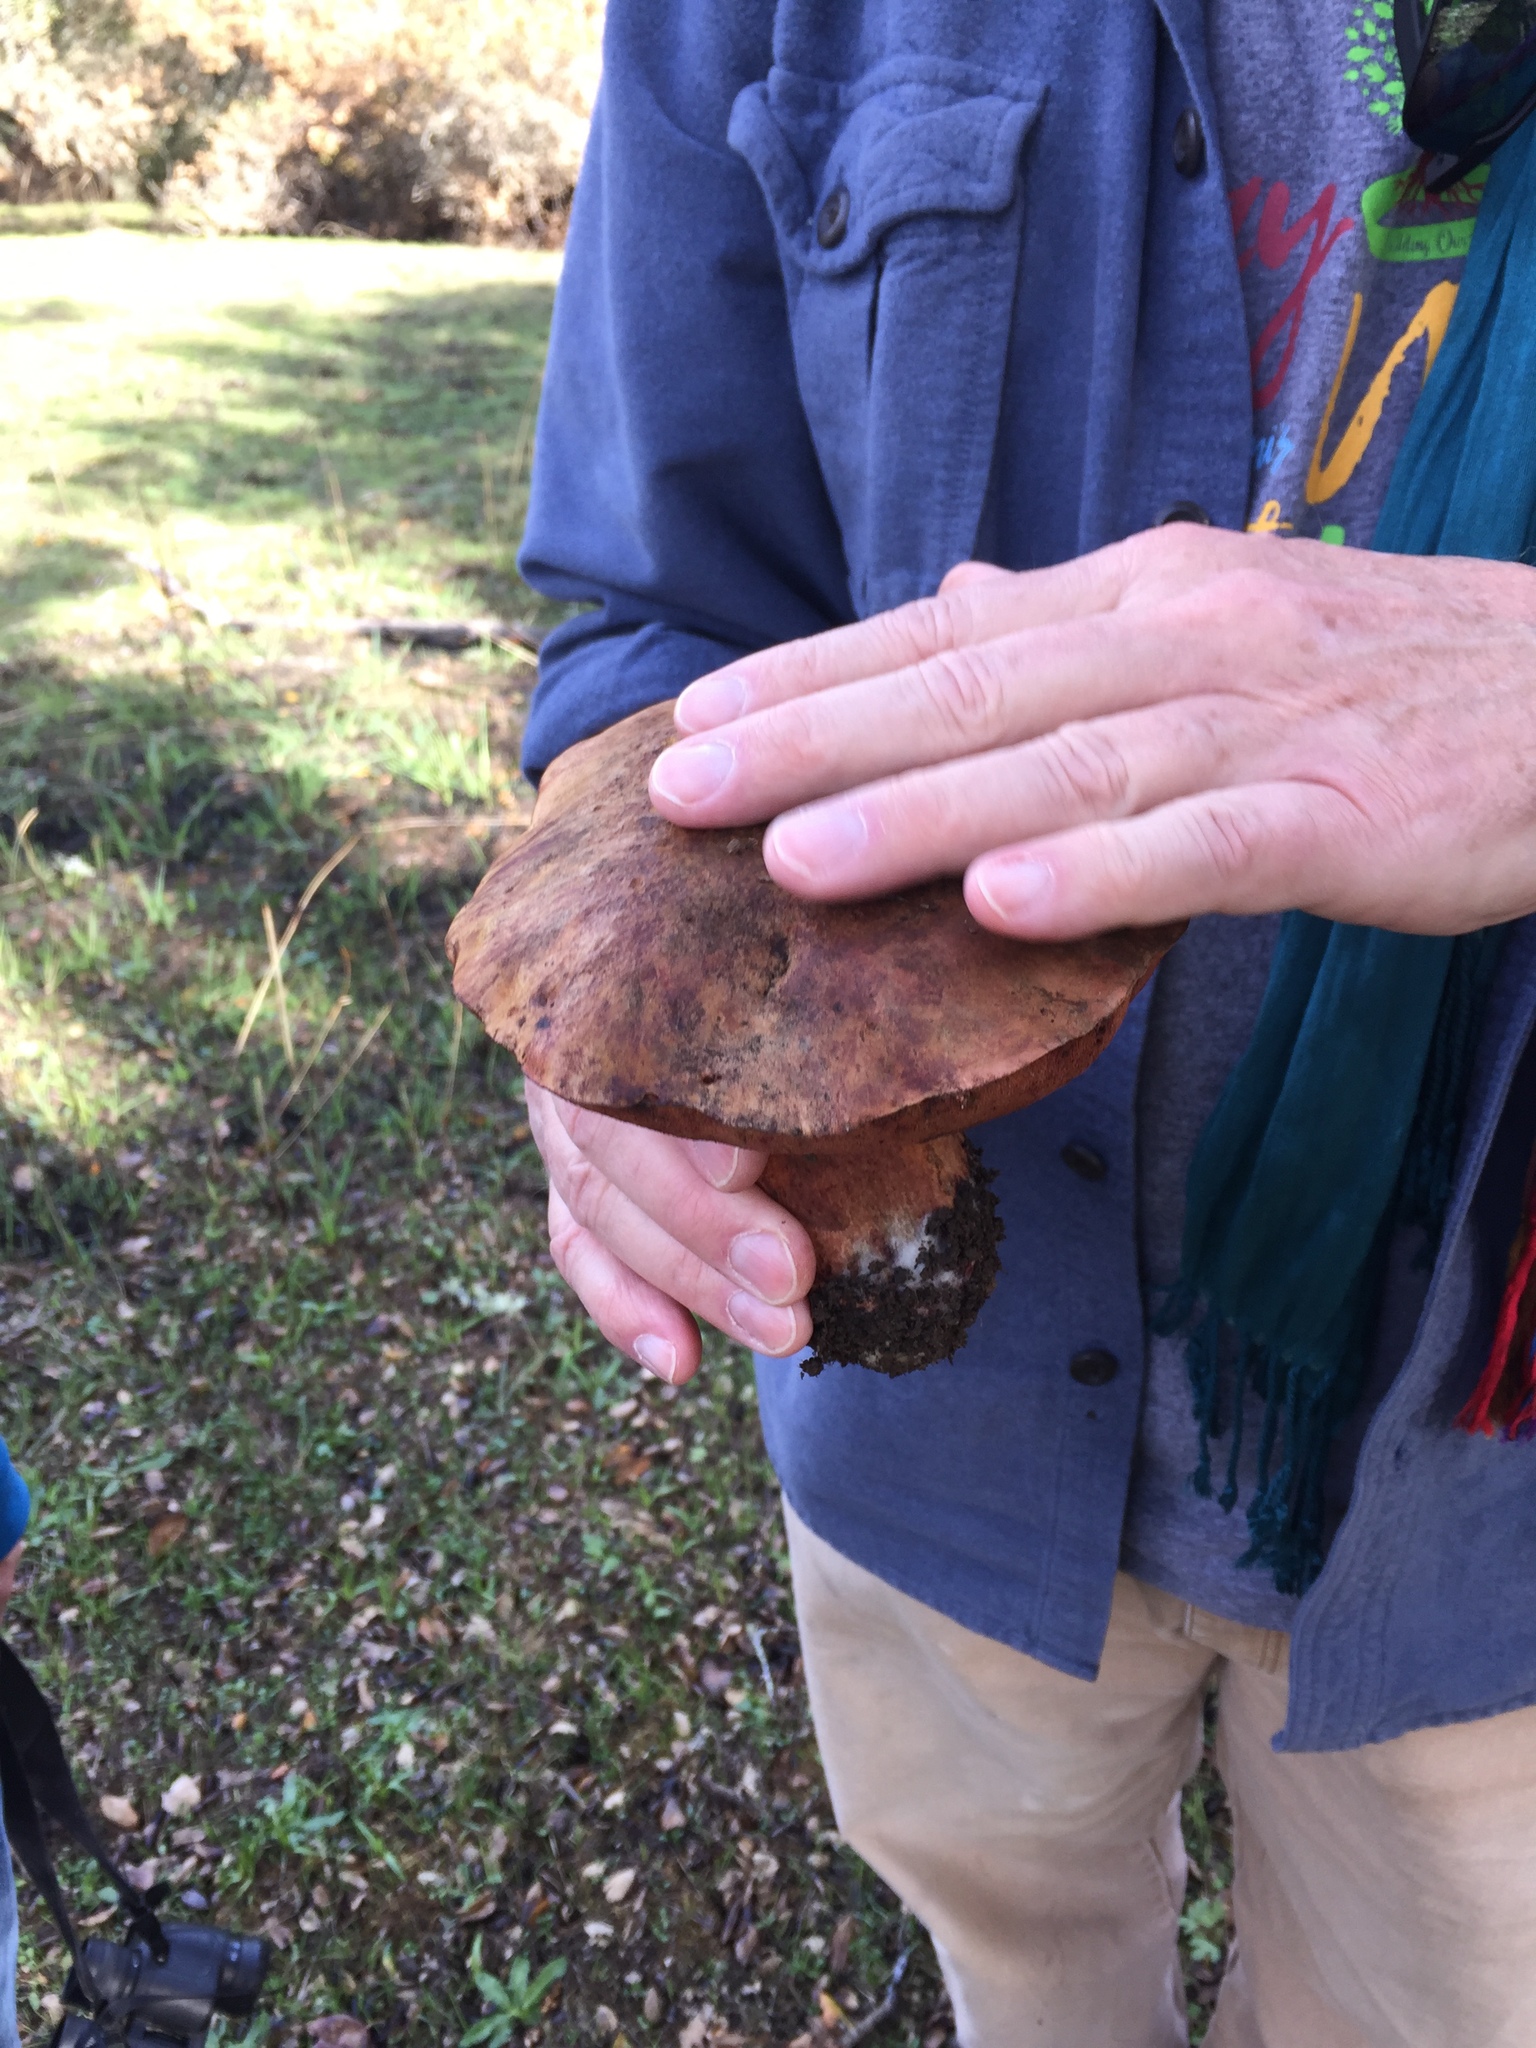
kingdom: Fungi
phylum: Basidiomycota
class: Agaricomycetes
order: Boletales
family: Boletaceae
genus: Suillellus
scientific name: Suillellus amygdalinus
